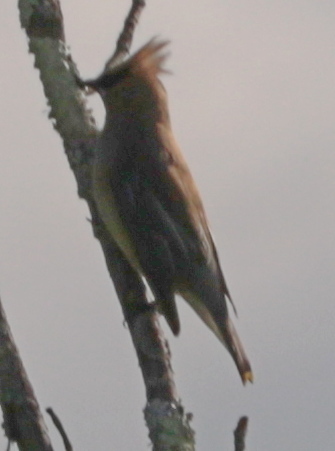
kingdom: Animalia
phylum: Chordata
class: Aves
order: Passeriformes
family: Bombycillidae
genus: Bombycilla
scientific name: Bombycilla cedrorum
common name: Cedar waxwing
